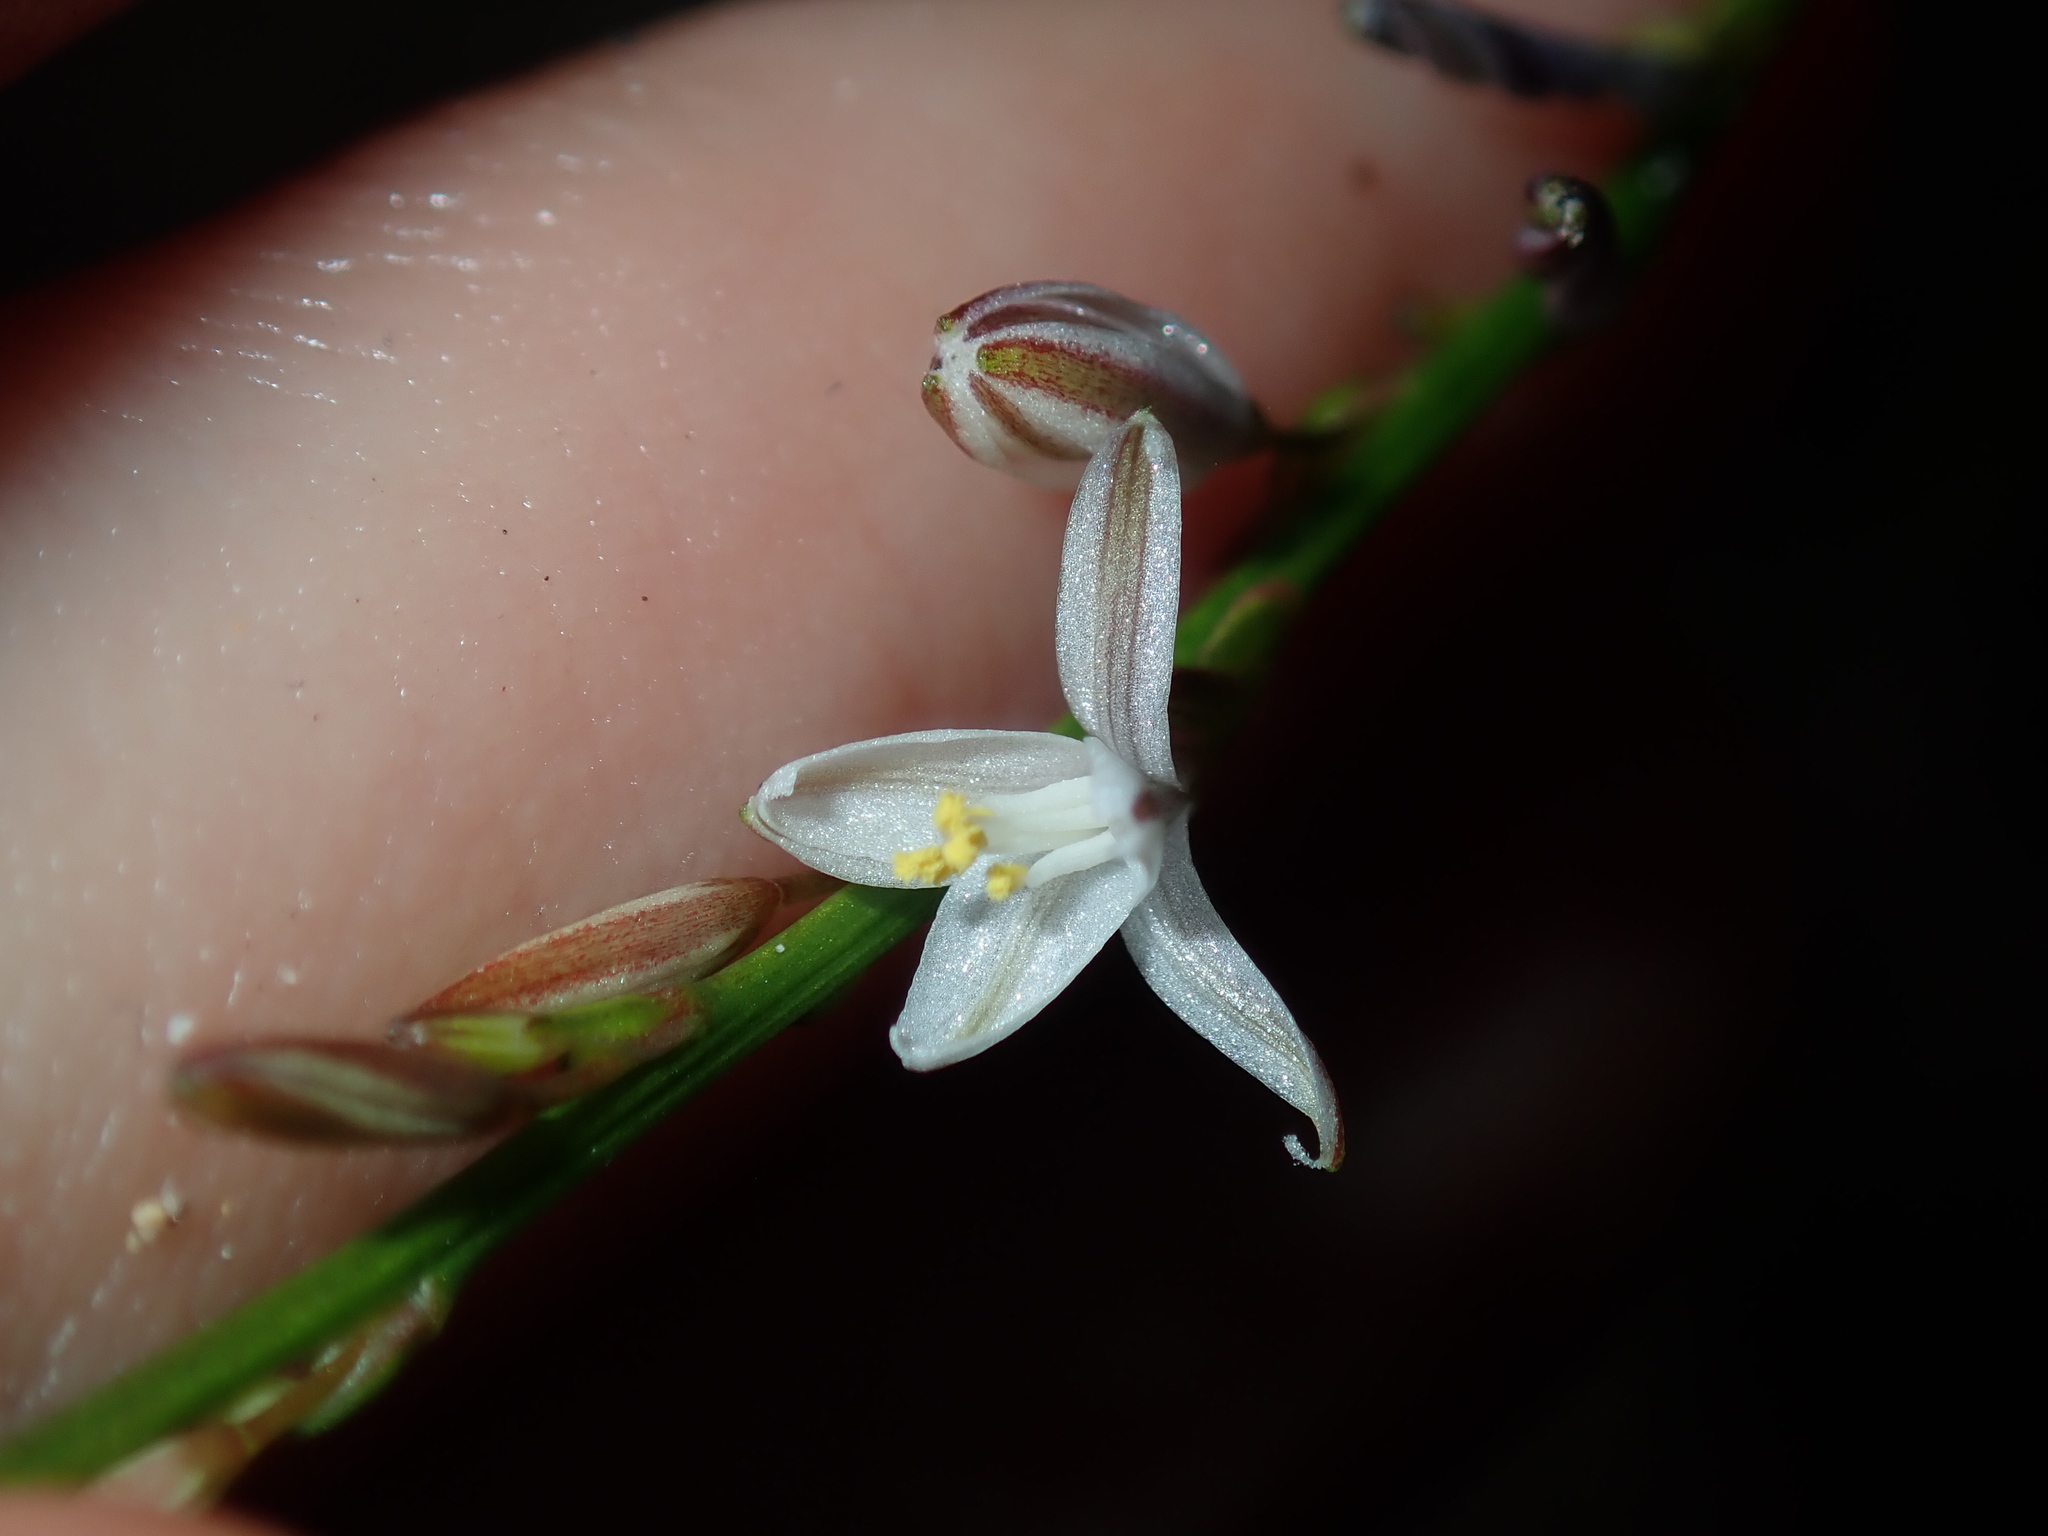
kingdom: Plantae
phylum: Tracheophyta
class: Liliopsida
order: Asparagales
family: Asphodelaceae
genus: Caesia
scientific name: Caesia parviflora
